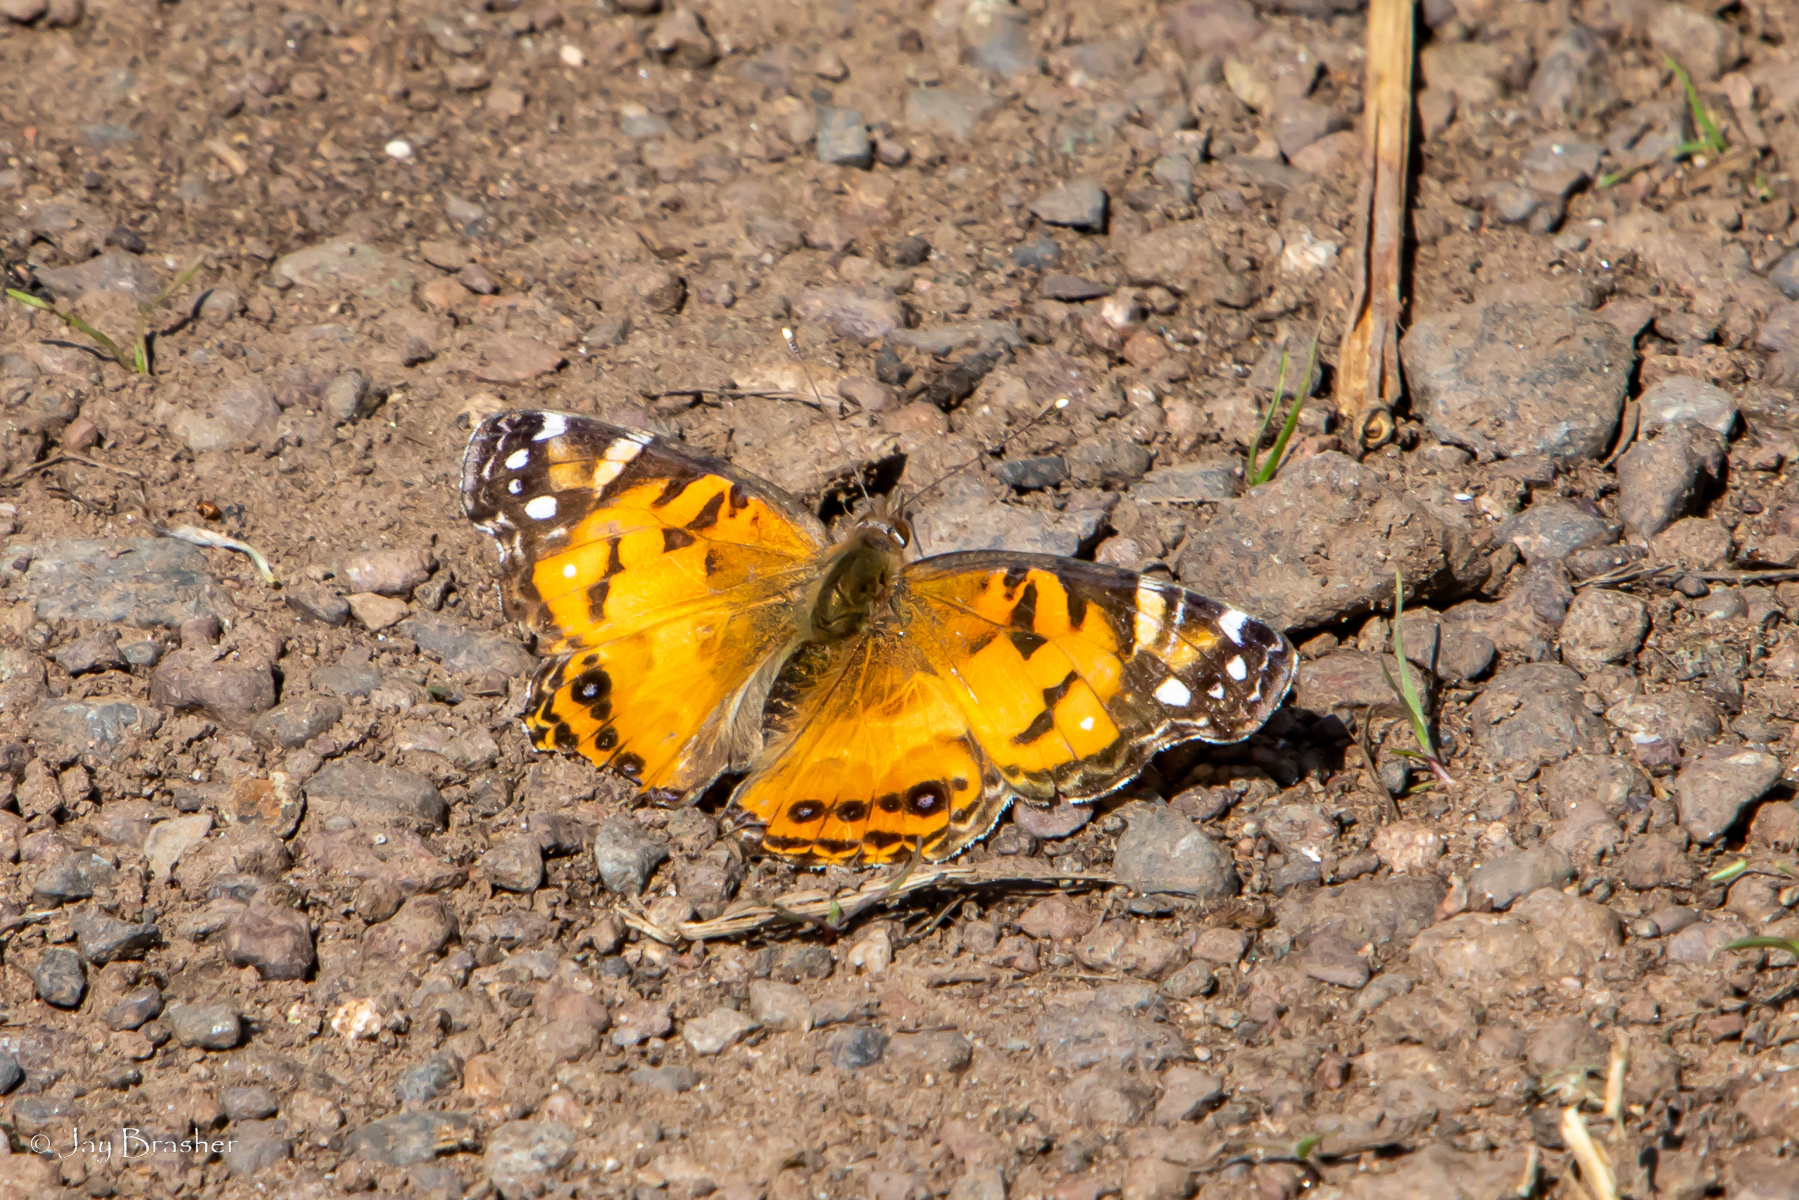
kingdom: Animalia
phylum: Arthropoda
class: Insecta
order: Lepidoptera
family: Nymphalidae
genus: Vanessa
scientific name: Vanessa virginiensis
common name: American lady
